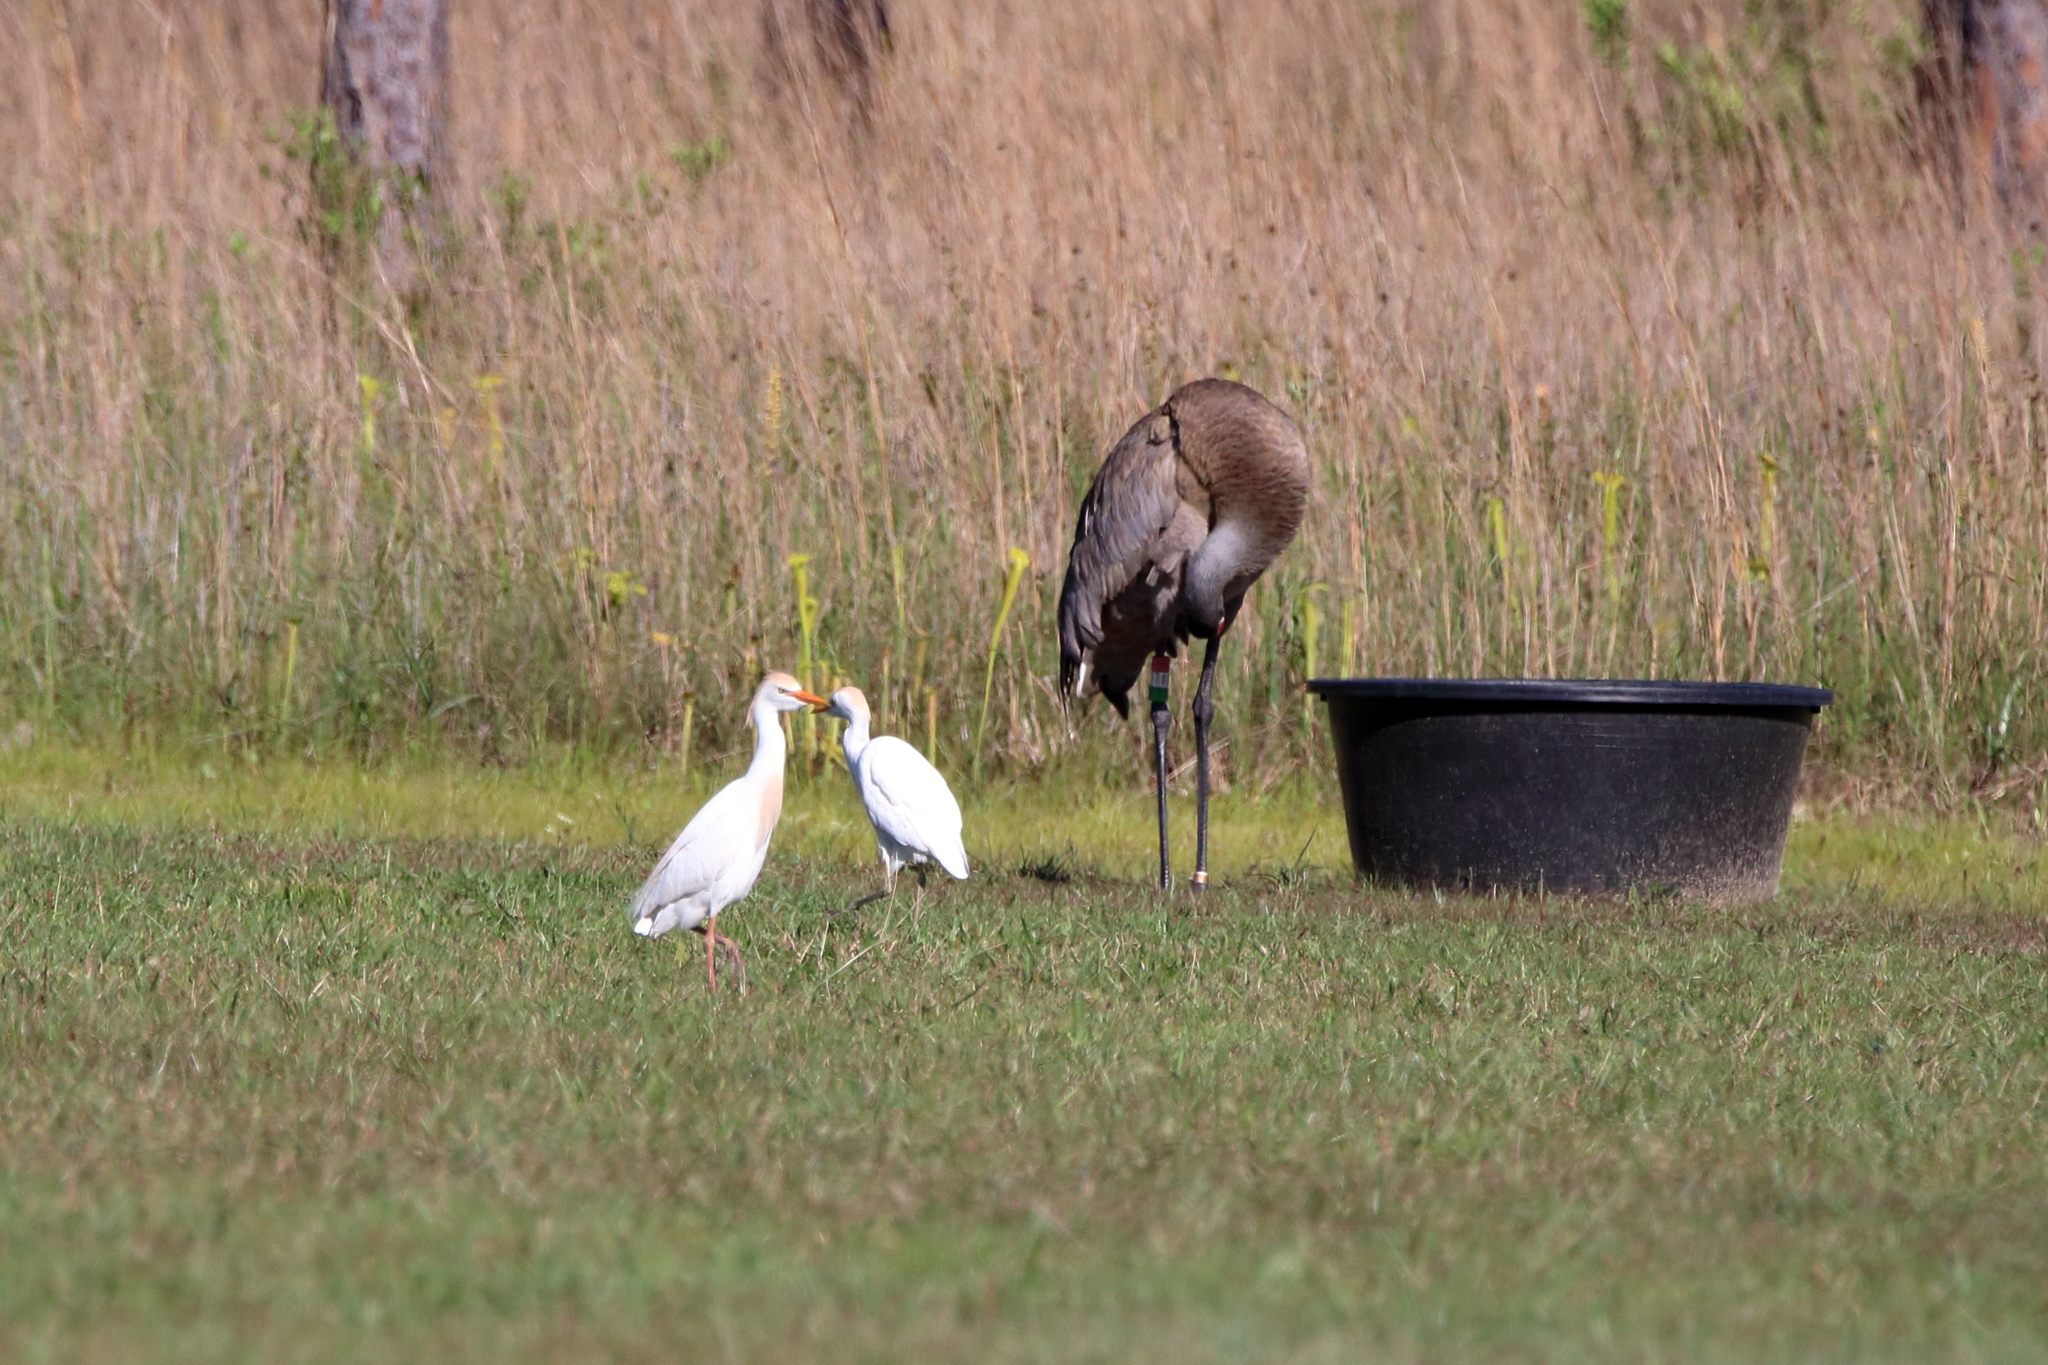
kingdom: Animalia
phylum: Chordata
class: Aves
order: Pelecaniformes
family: Ardeidae
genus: Bubulcus
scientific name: Bubulcus ibis
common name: Cattle egret
